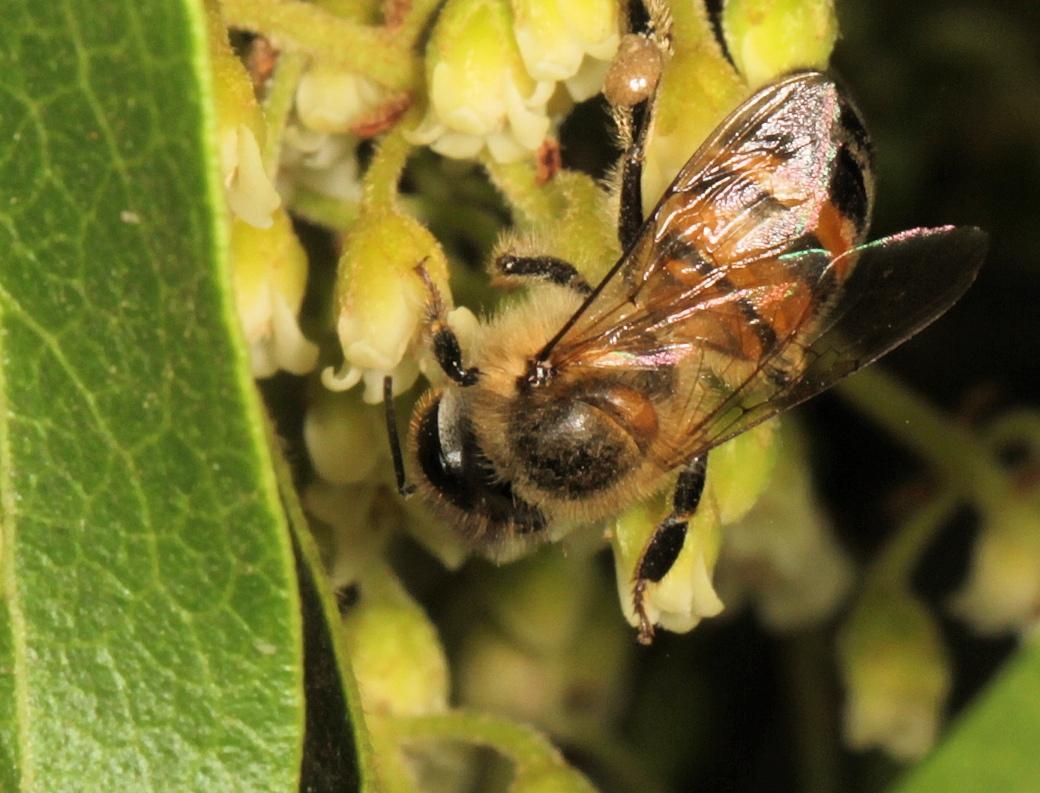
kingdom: Animalia
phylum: Arthropoda
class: Insecta
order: Hymenoptera
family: Apidae
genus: Apis
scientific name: Apis mellifera
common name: Honey bee
